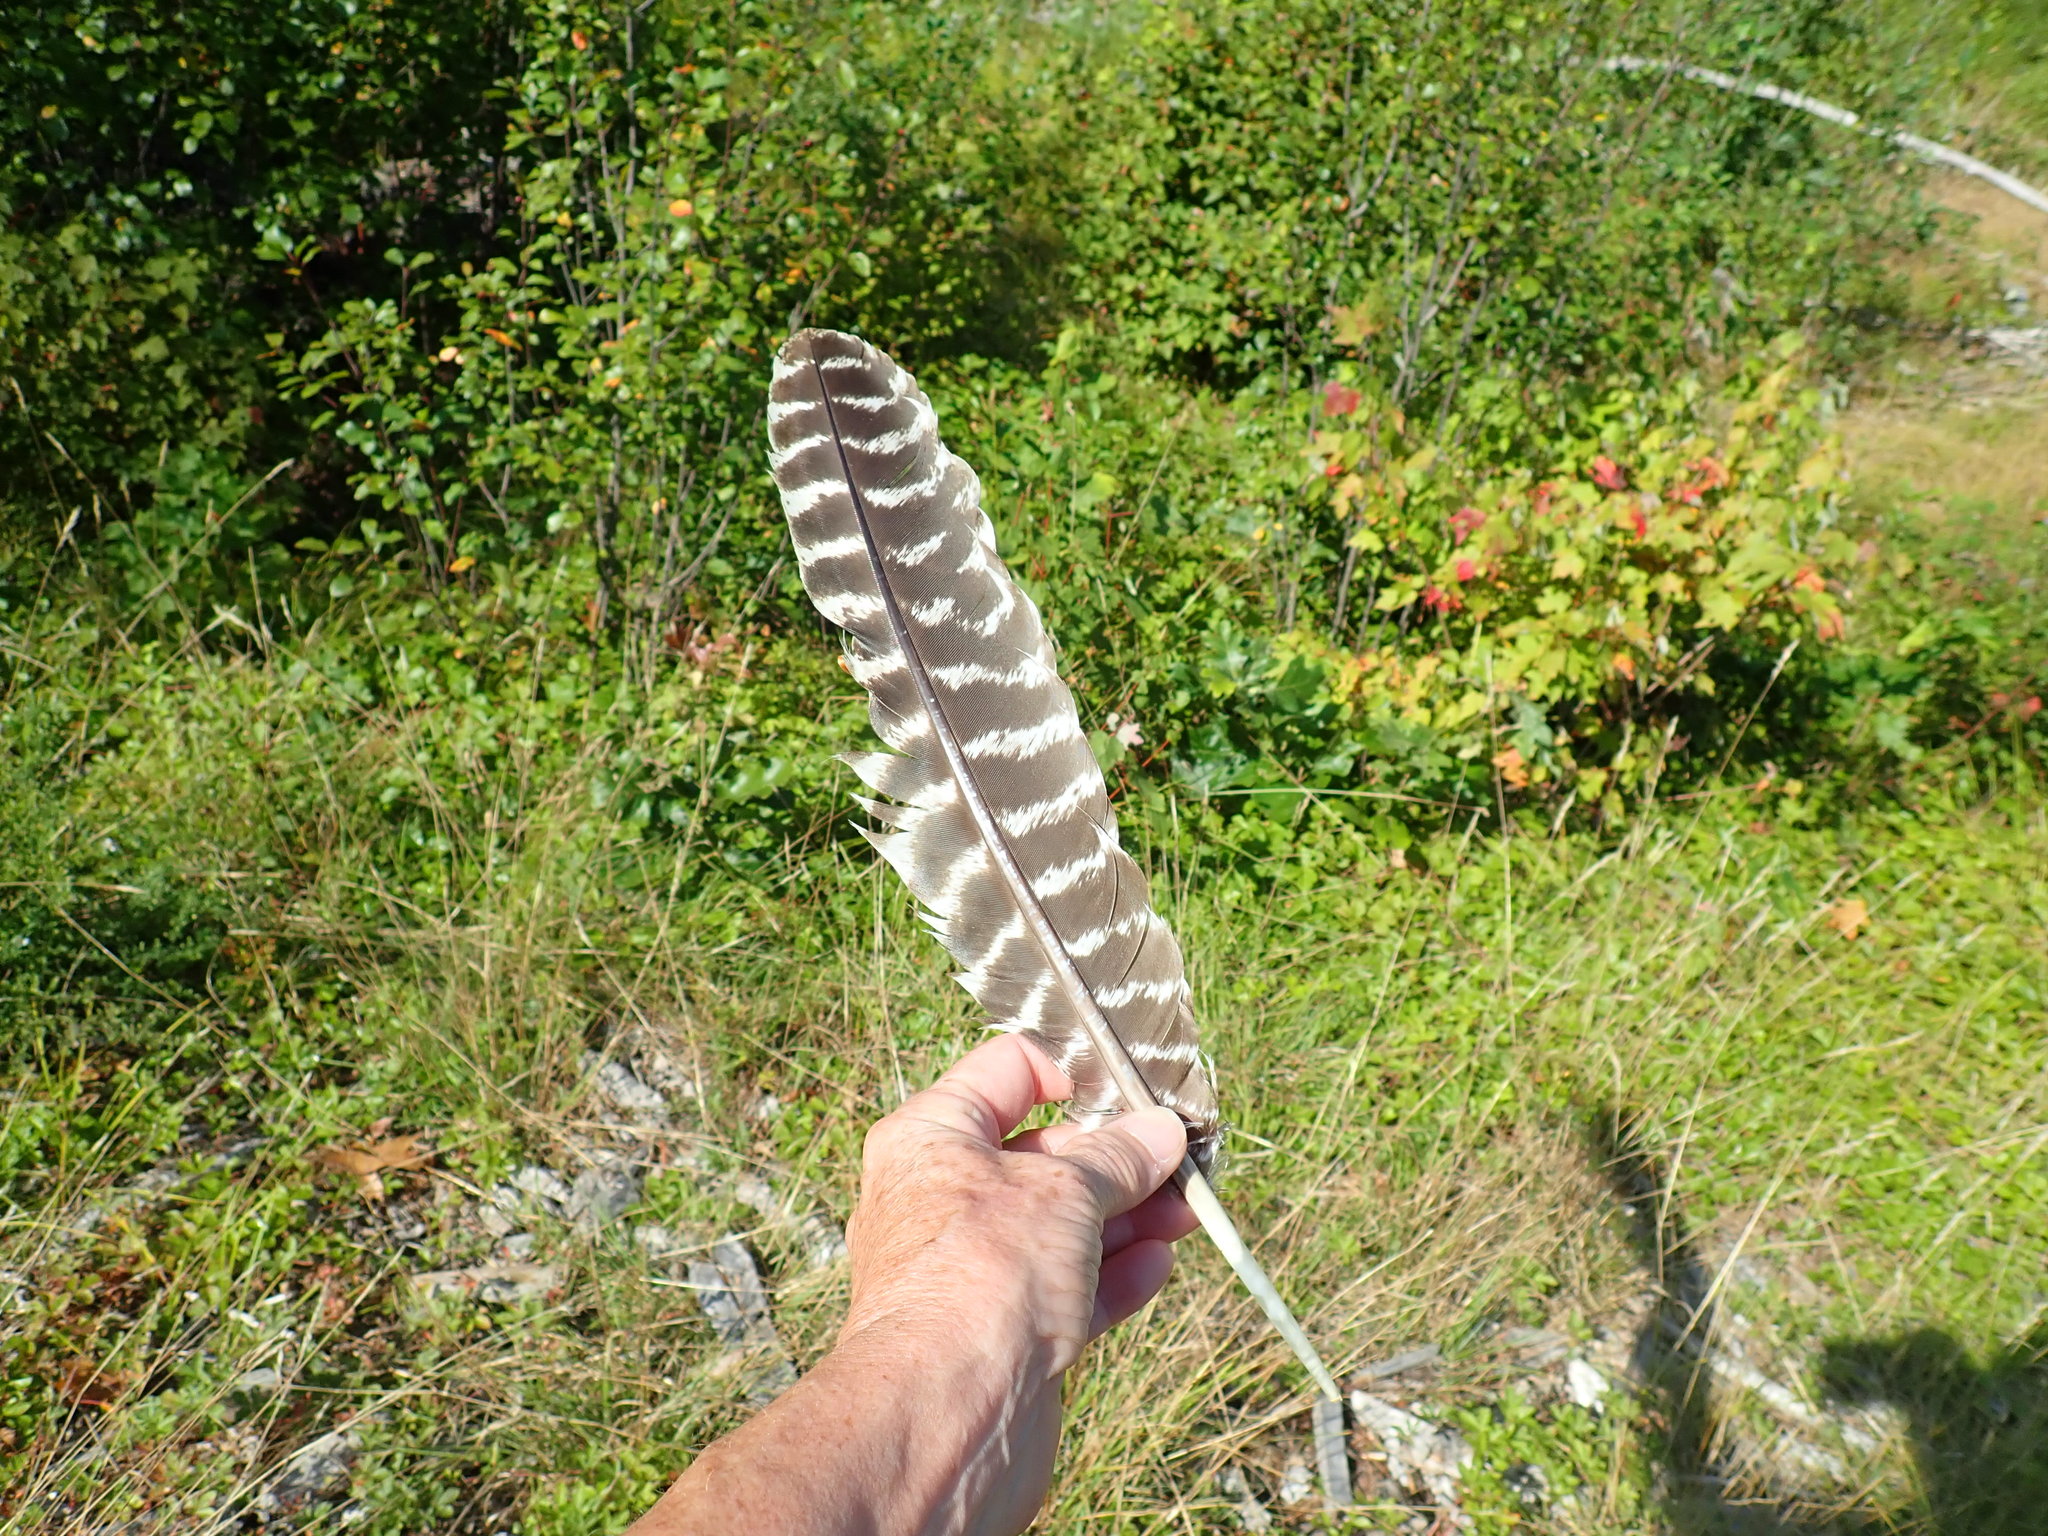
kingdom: Animalia
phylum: Chordata
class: Aves
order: Galliformes
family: Phasianidae
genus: Meleagris
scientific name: Meleagris gallopavo
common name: Wild turkey
